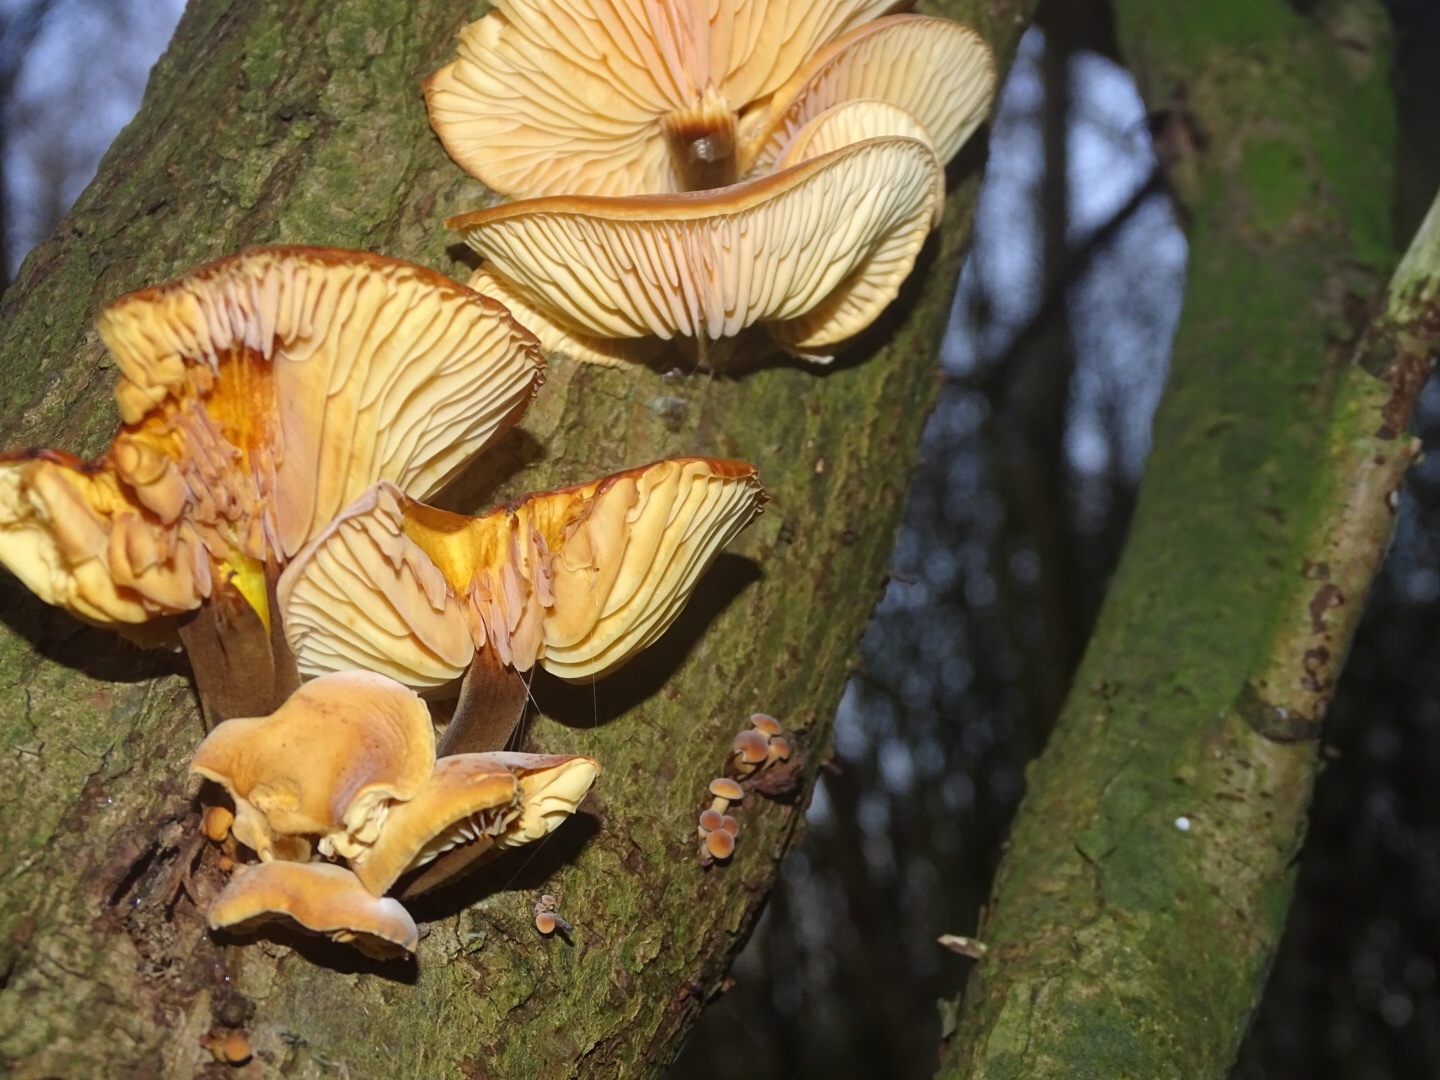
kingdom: Fungi
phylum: Basidiomycota
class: Agaricomycetes
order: Agaricales
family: Physalacriaceae
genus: Flammulina
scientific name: Flammulina
